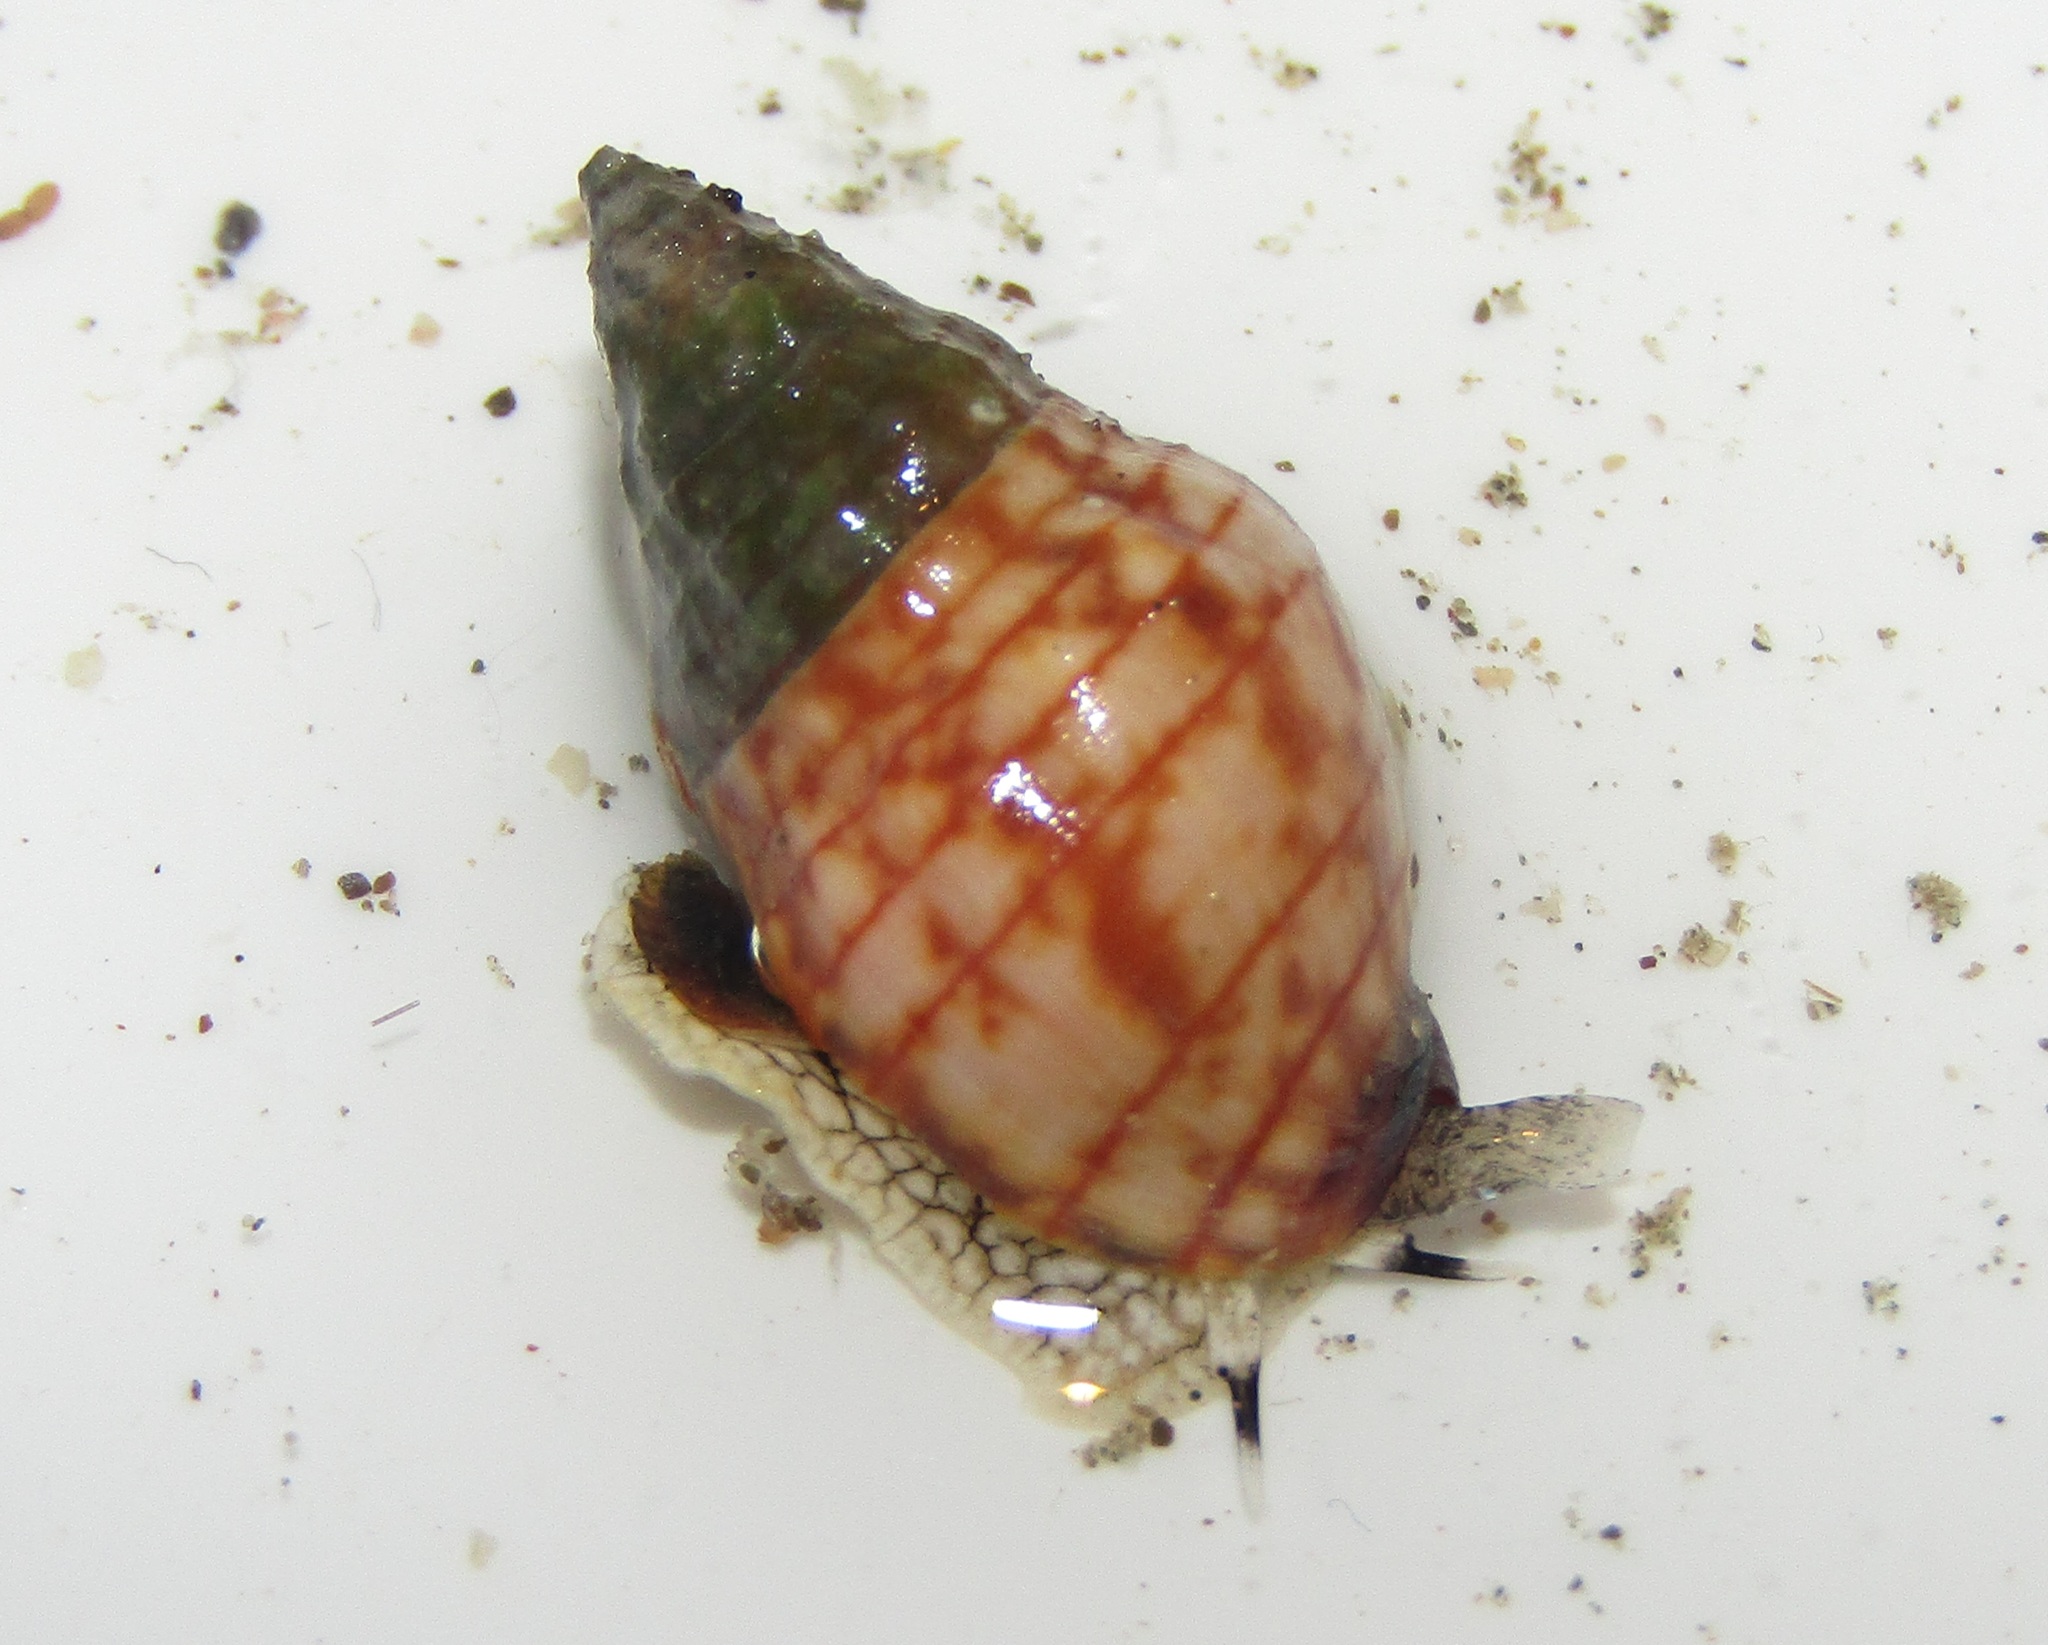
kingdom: Animalia
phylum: Mollusca
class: Gastropoda
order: Neogastropoda
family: Cominellidae
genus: Cominella
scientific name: Cominella virgata
